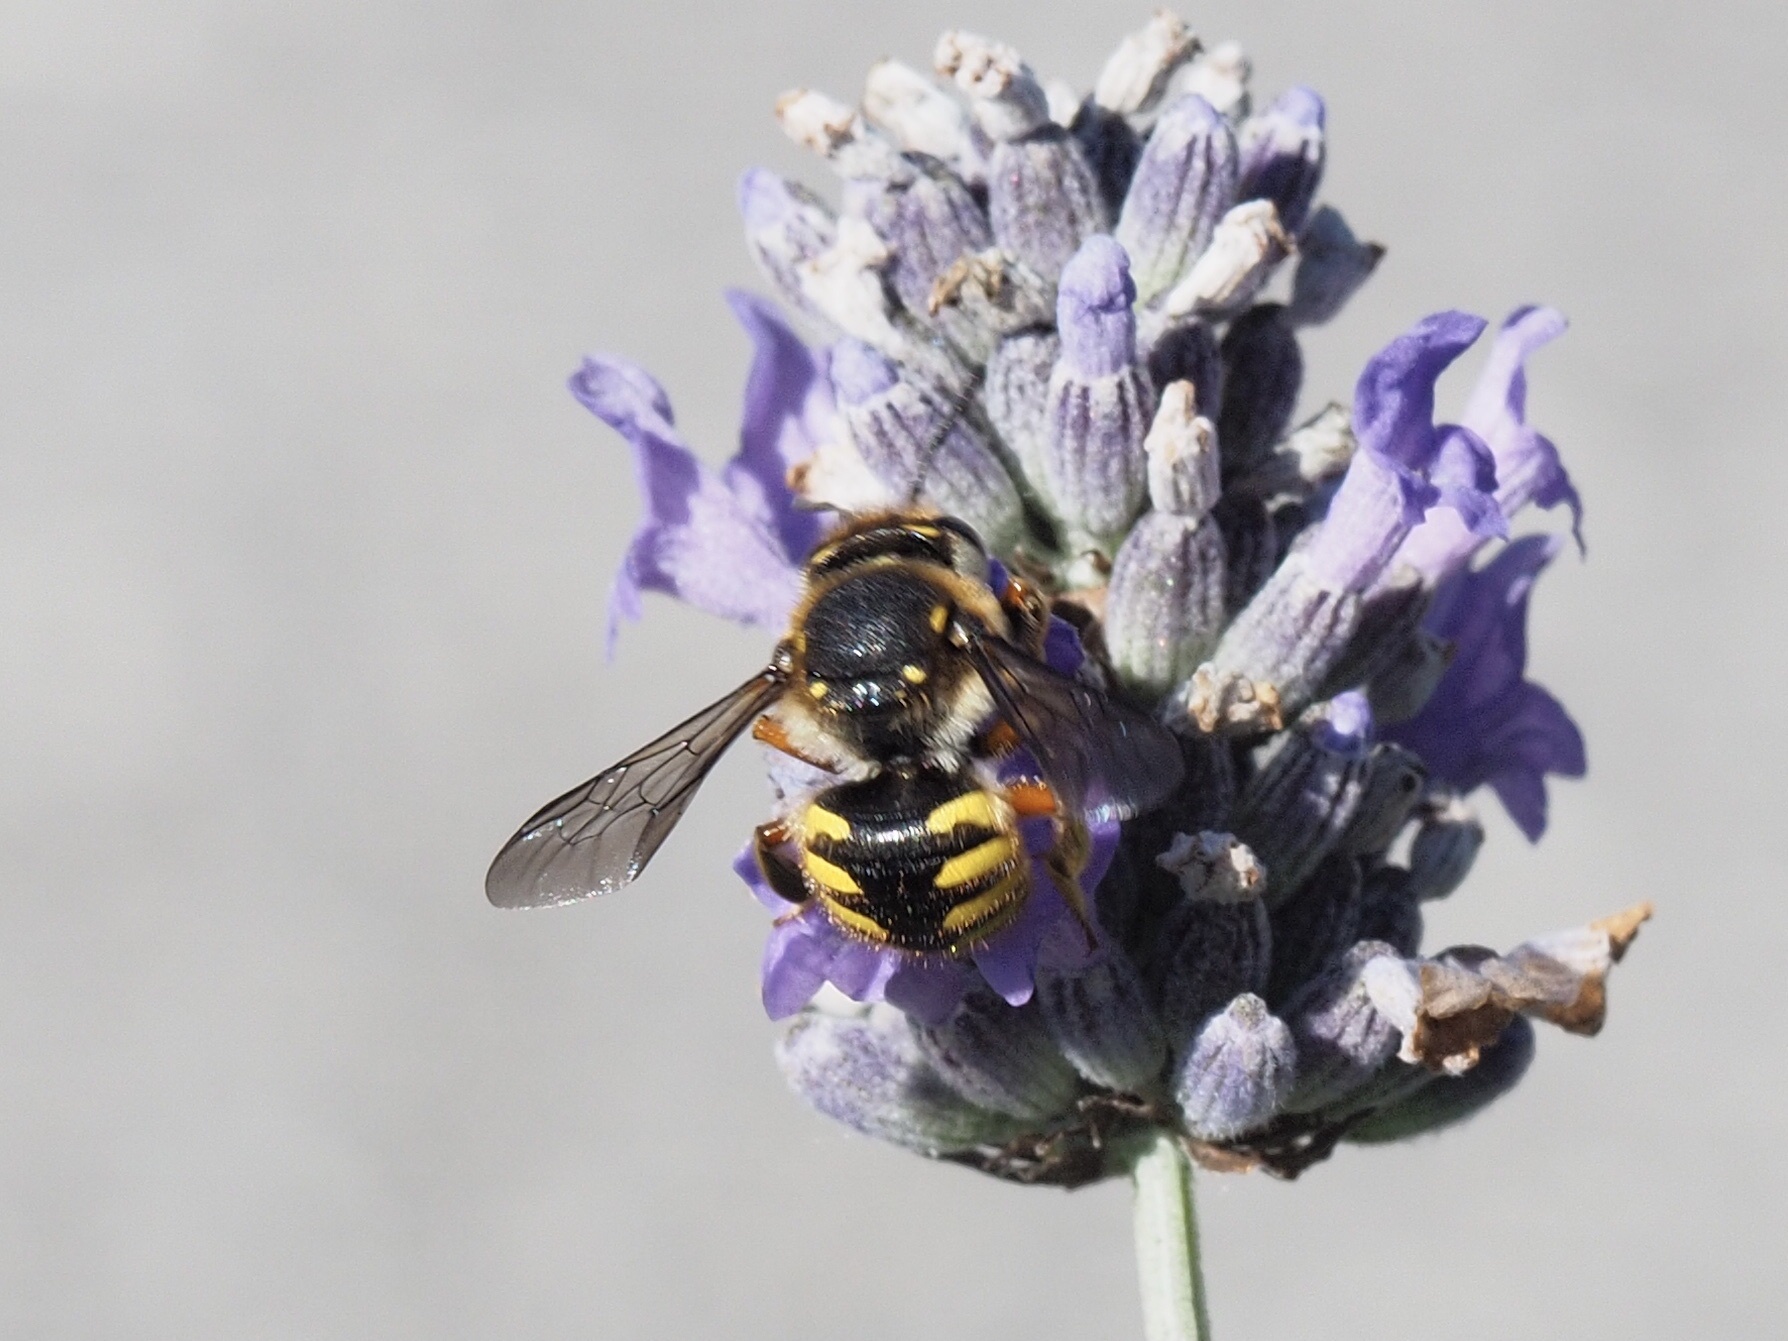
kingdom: Animalia
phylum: Arthropoda
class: Insecta
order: Hymenoptera
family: Megachilidae
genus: Anthidium
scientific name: Anthidium manicatum
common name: Wool carder bee
